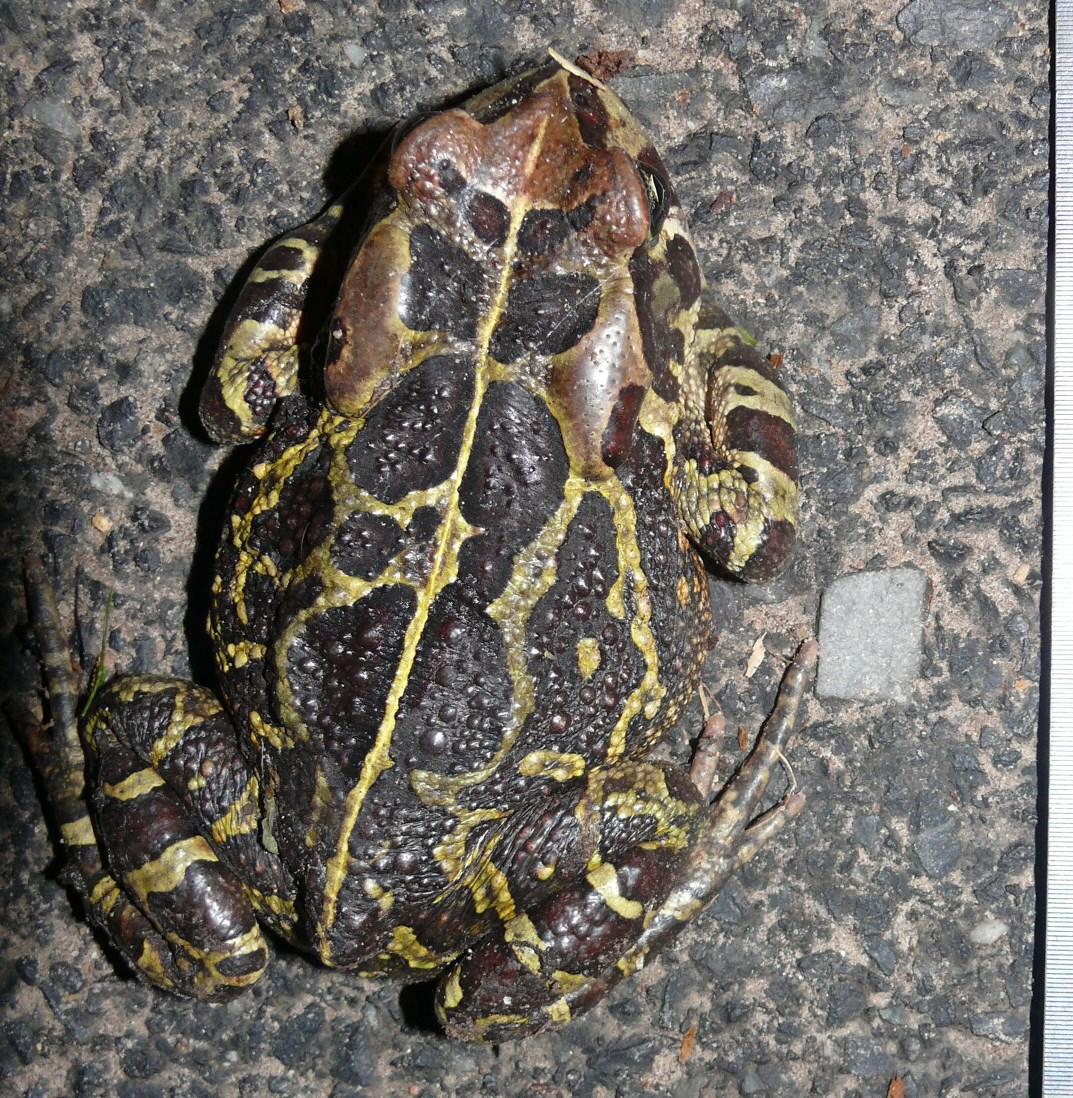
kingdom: Animalia
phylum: Chordata
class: Amphibia
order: Anura
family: Bufonidae
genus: Sclerophrys
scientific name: Sclerophrys pantherina
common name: Panther toad
